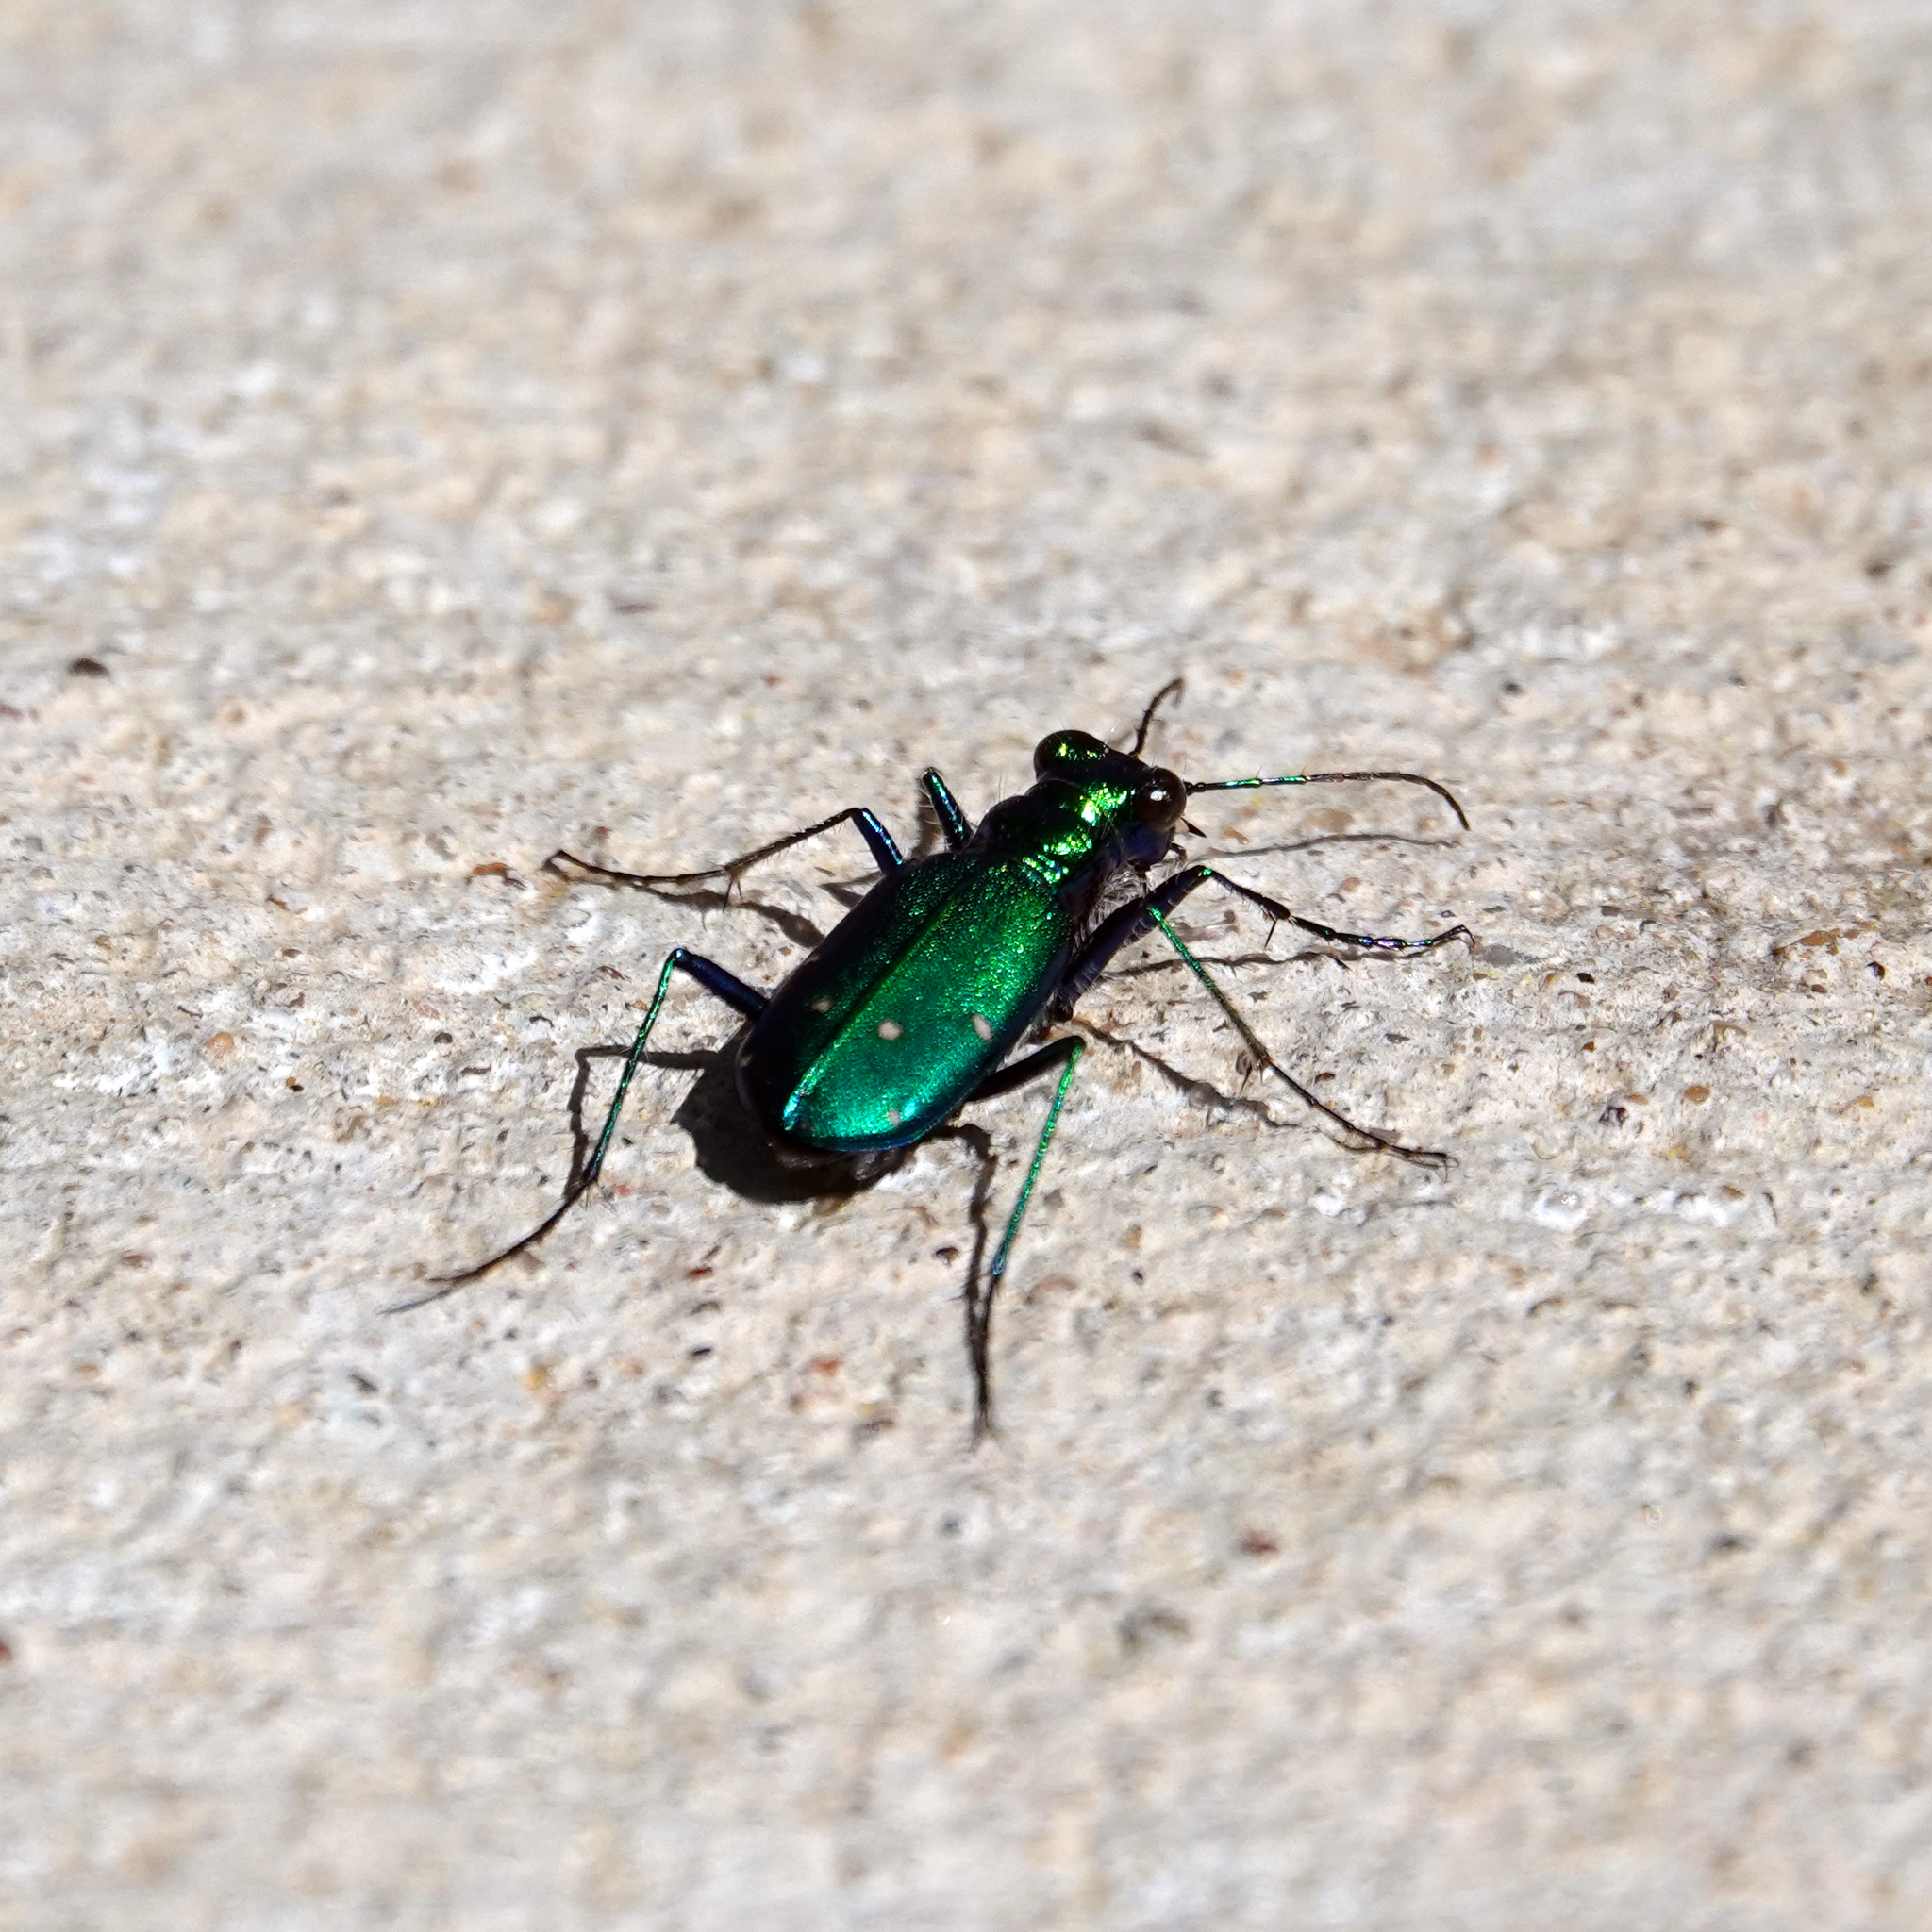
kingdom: Animalia
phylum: Arthropoda
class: Insecta
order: Coleoptera
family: Carabidae
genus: Cicindela
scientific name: Cicindela sexguttata
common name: Six-spotted tiger beetle
